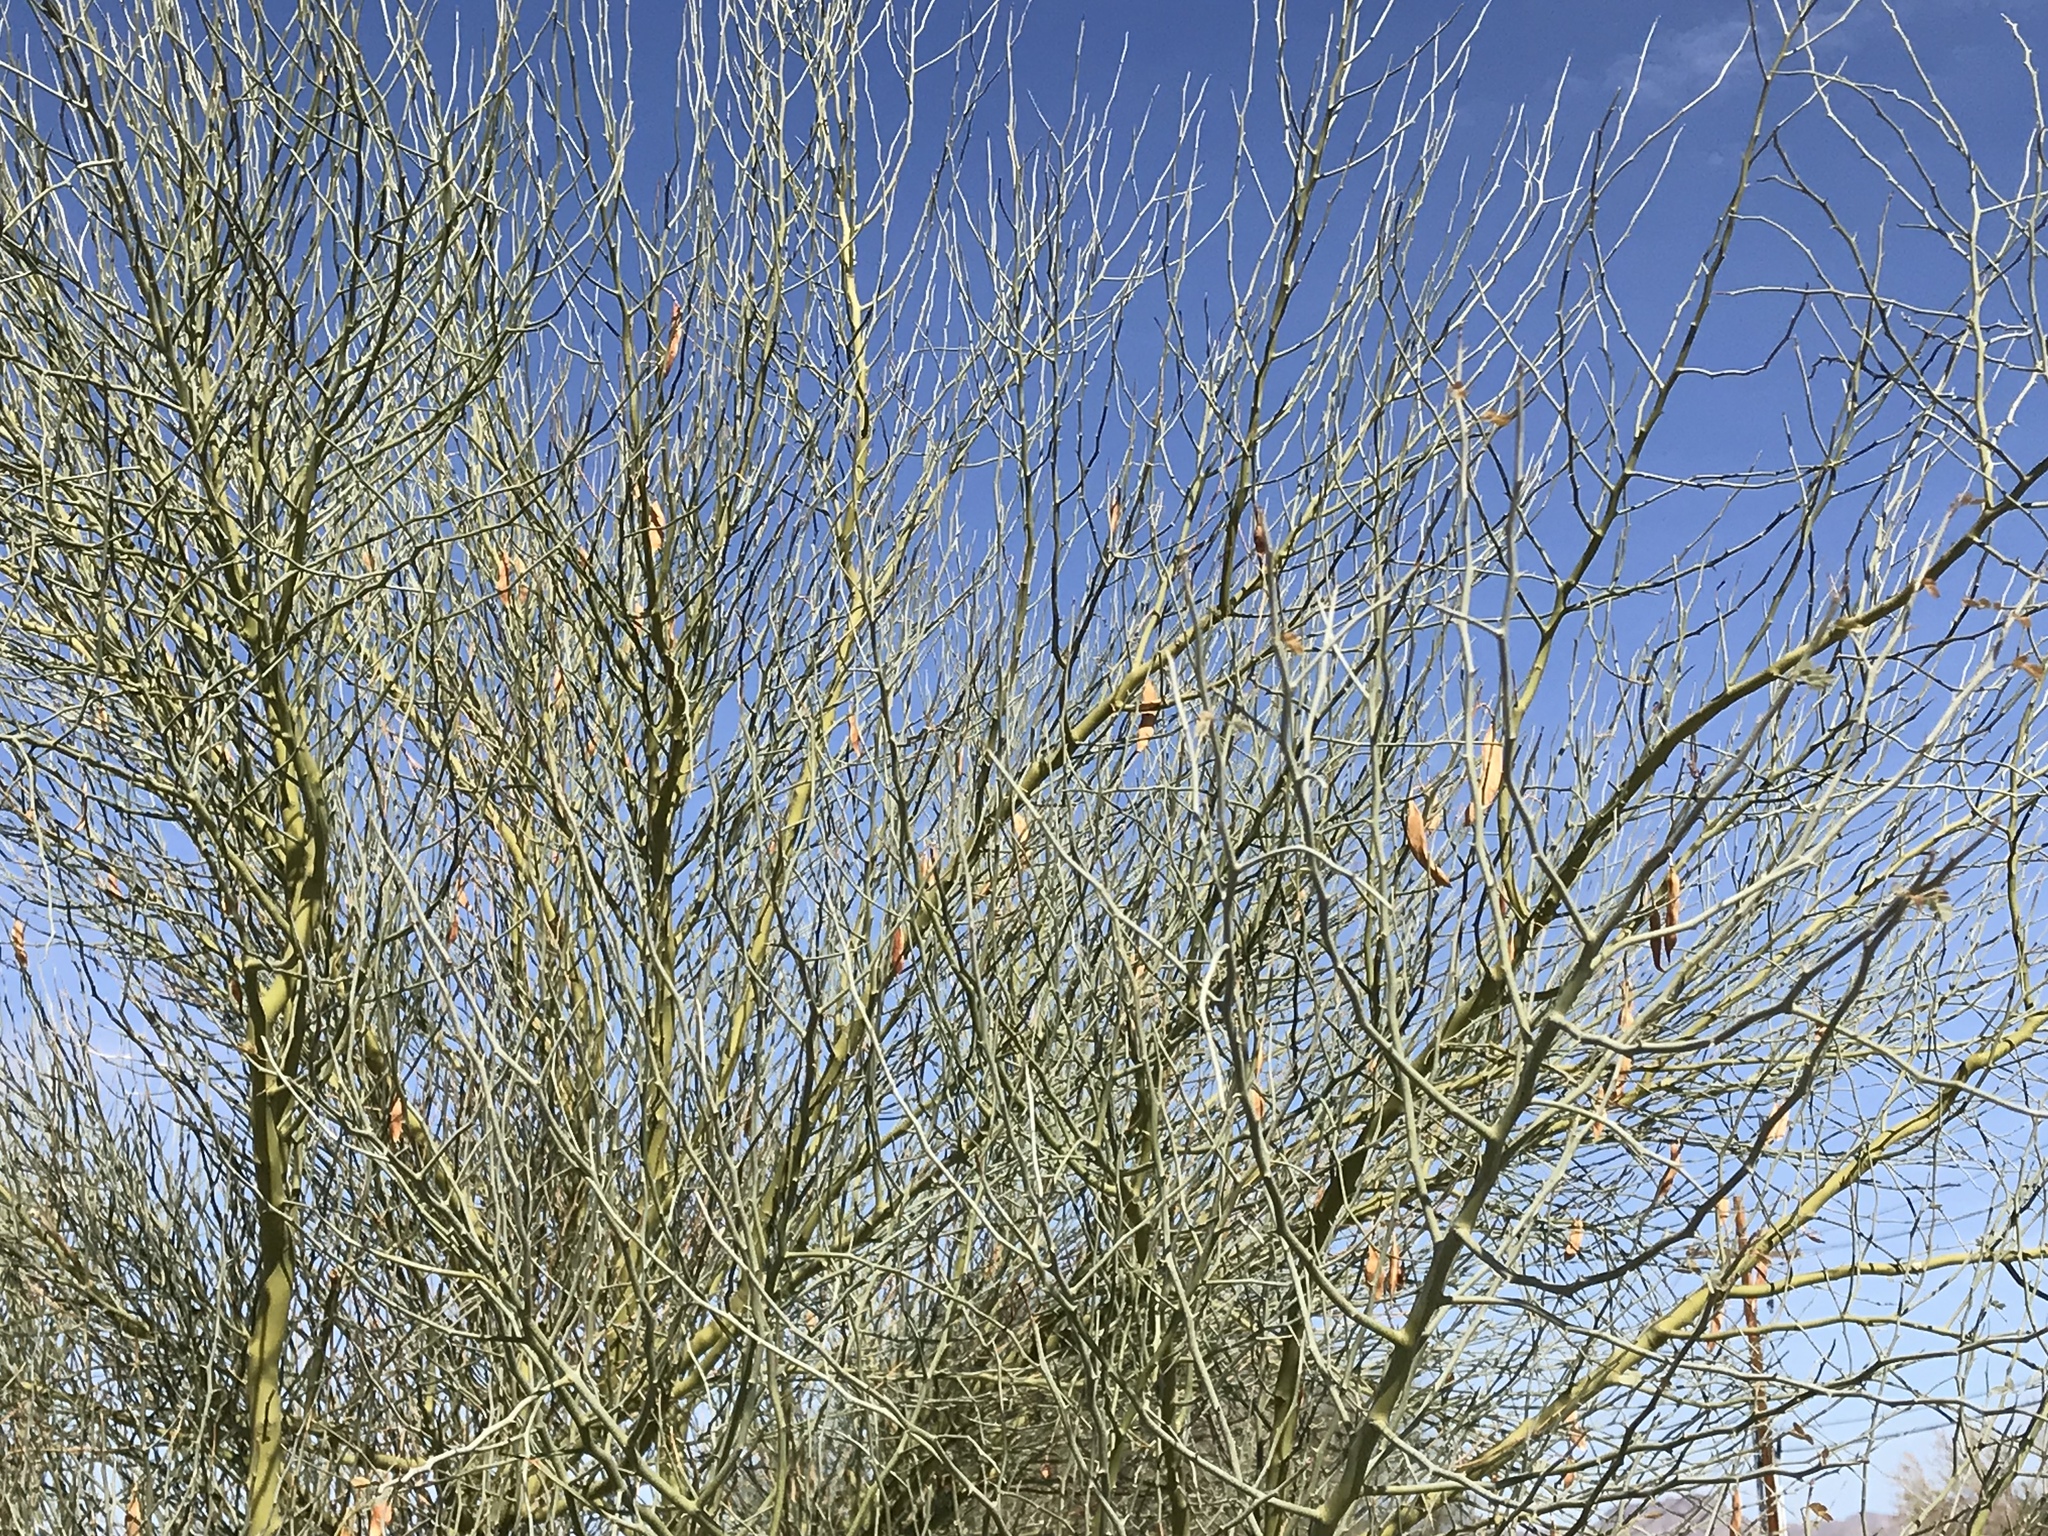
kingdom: Plantae
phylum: Tracheophyta
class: Magnoliopsida
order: Fabales
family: Fabaceae
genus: Parkinsonia
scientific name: Parkinsonia florida
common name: Blue paloverde
